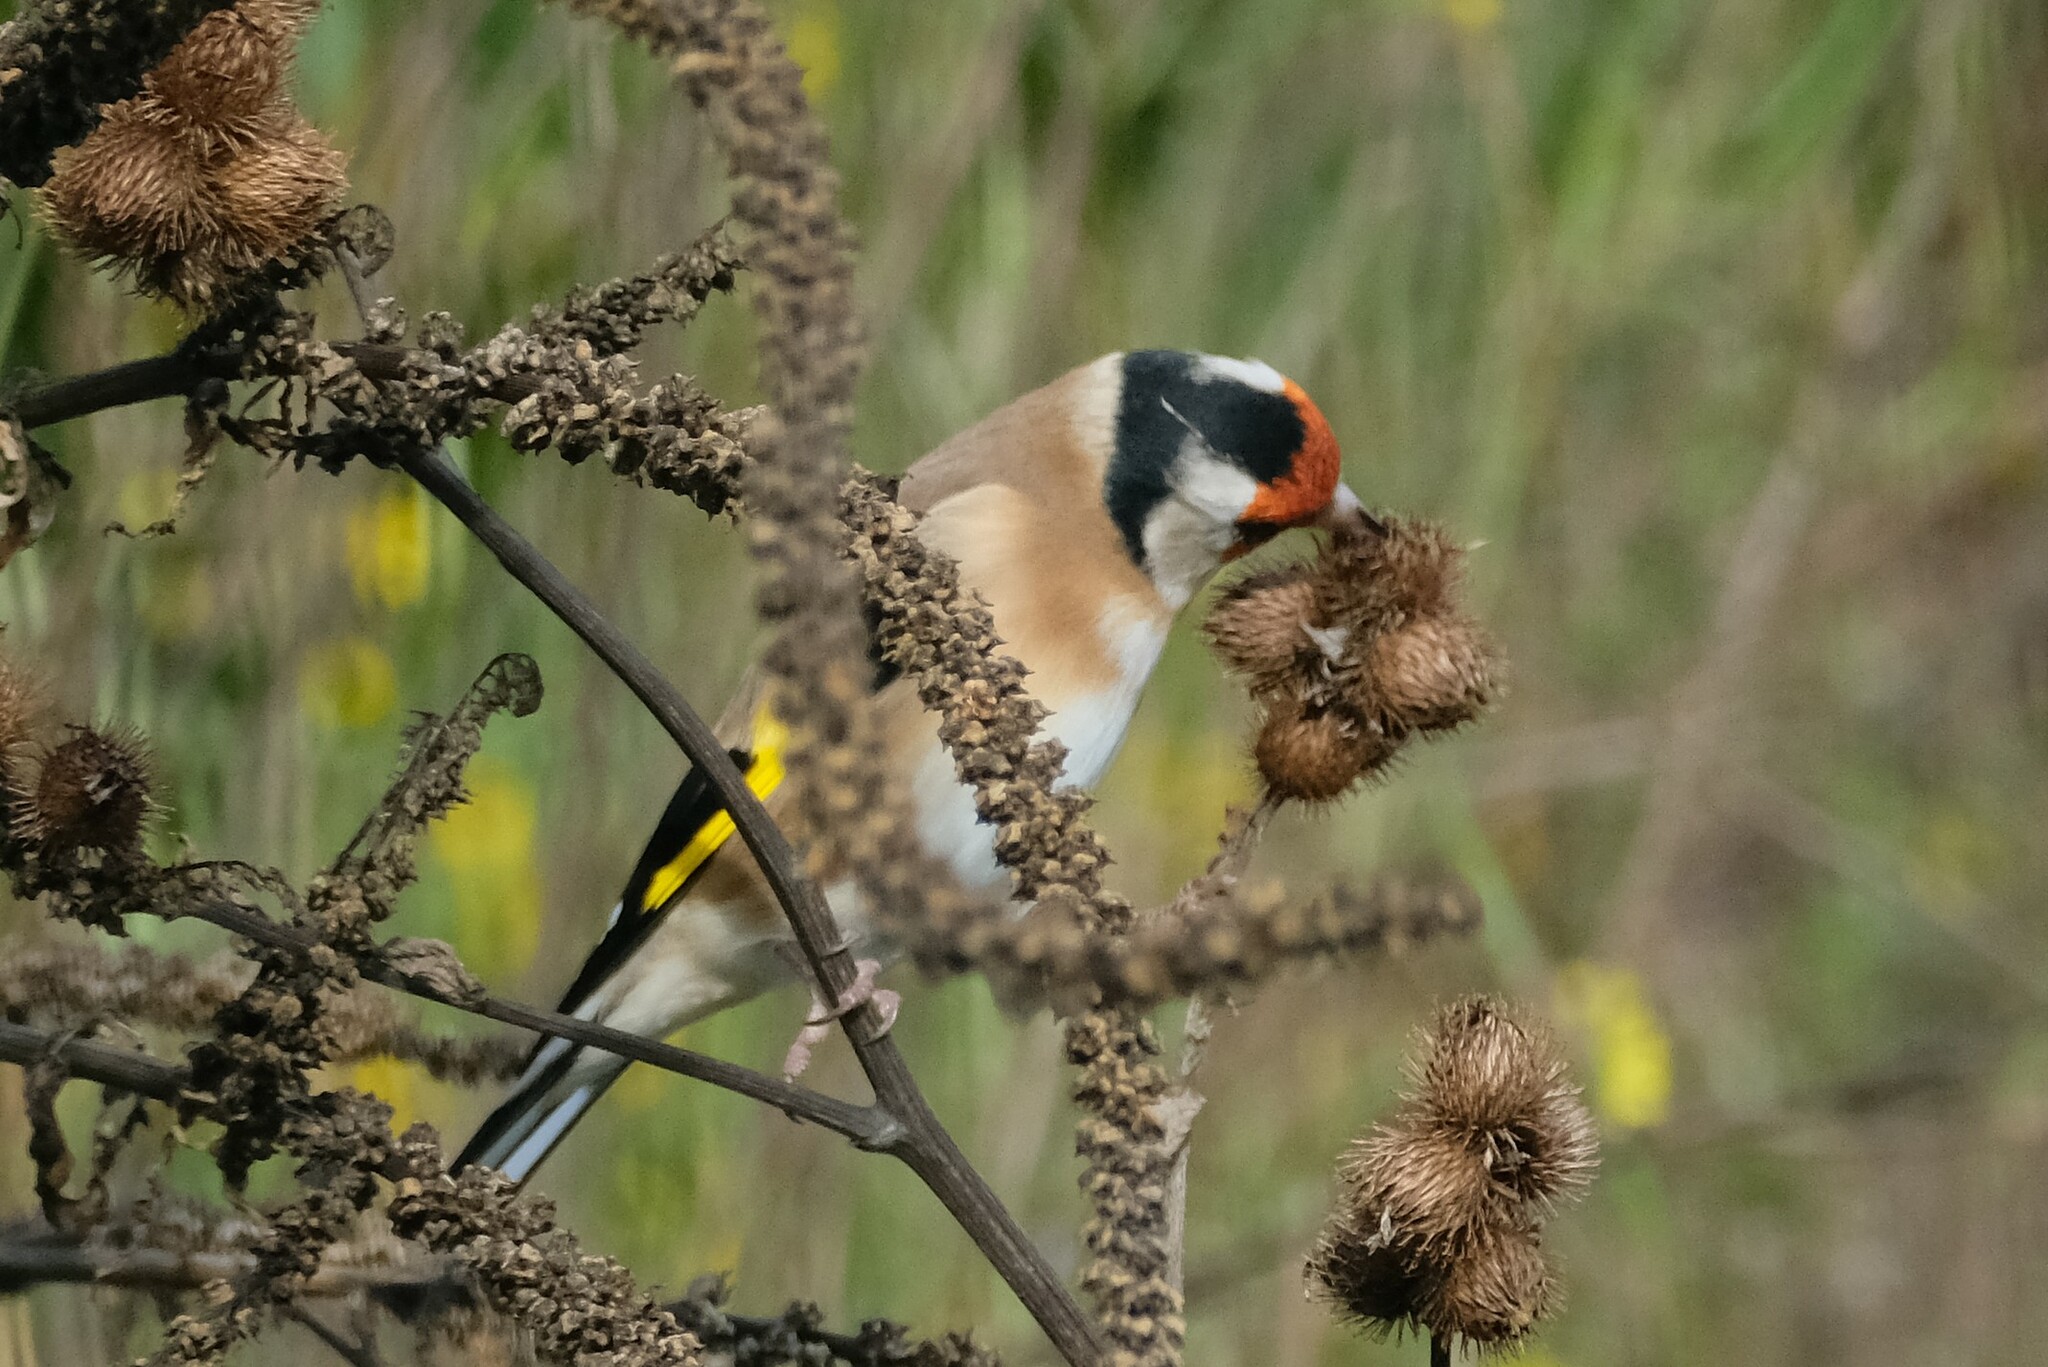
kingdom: Animalia
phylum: Chordata
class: Aves
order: Passeriformes
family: Fringillidae
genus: Carduelis
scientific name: Carduelis carduelis
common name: European goldfinch
